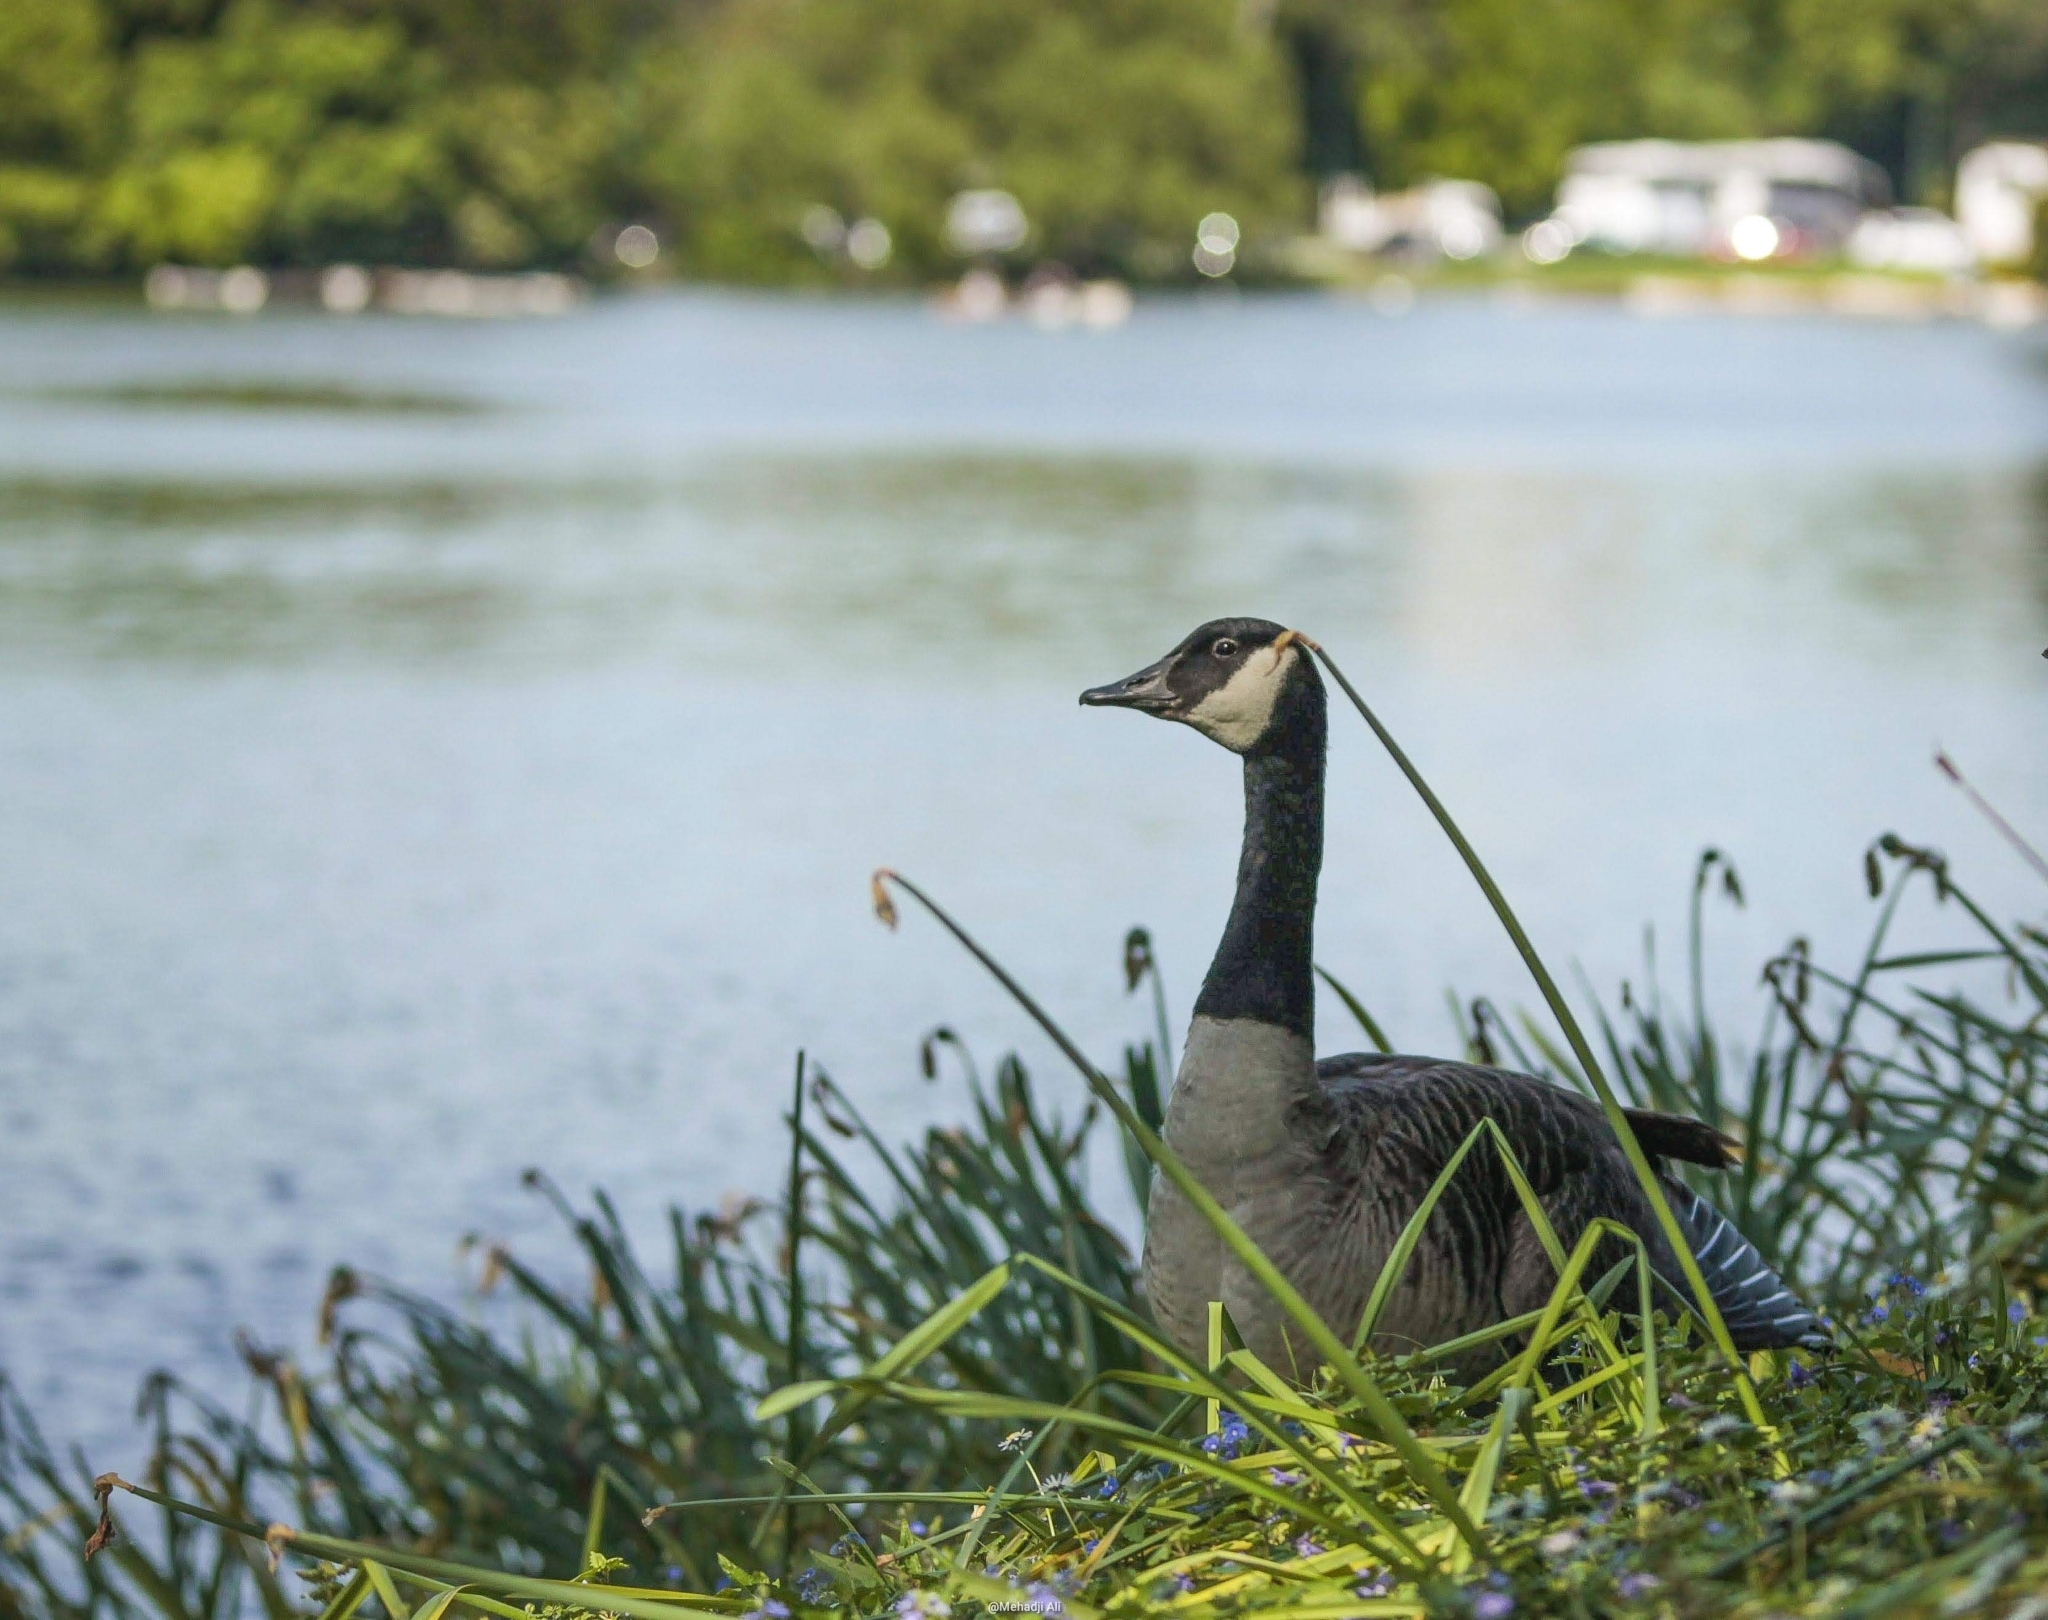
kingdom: Animalia
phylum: Chordata
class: Aves
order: Anseriformes
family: Anatidae
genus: Branta
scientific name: Branta canadensis
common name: Canada goose
